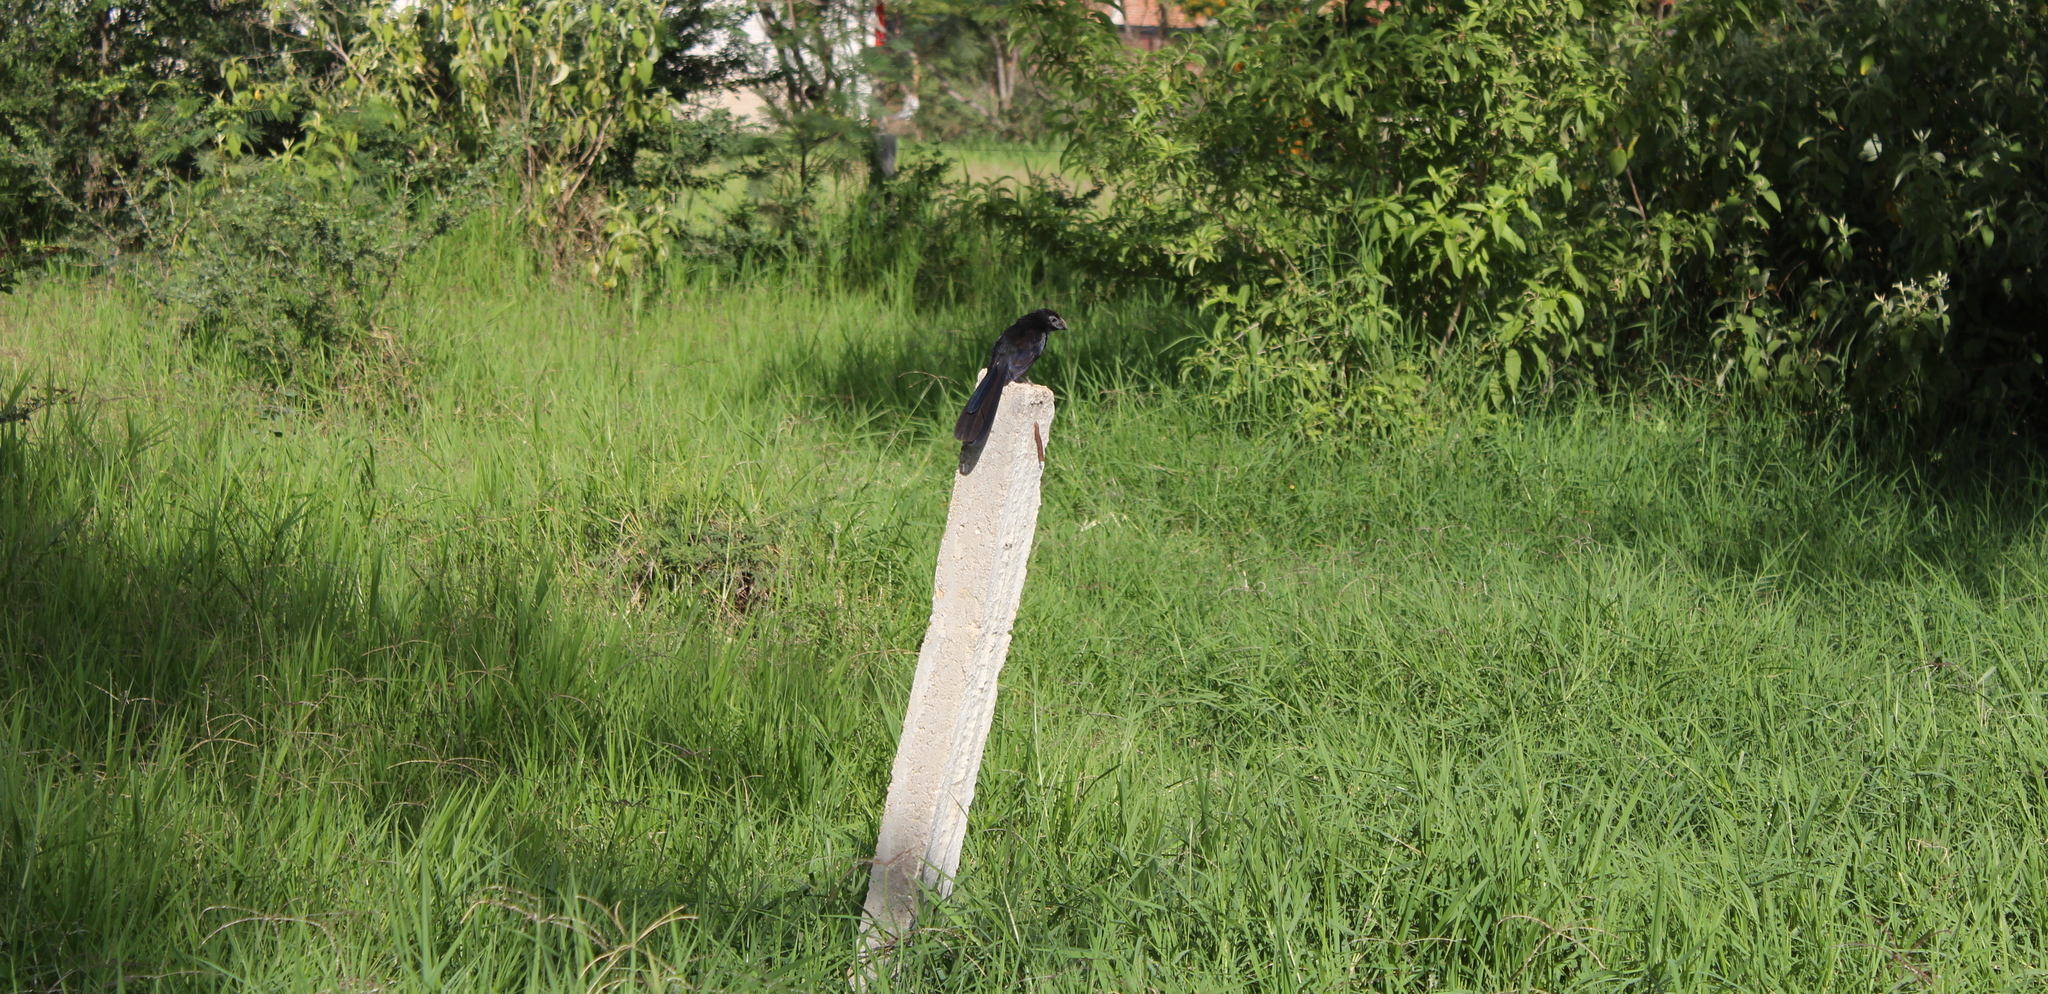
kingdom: Animalia
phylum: Chordata
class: Aves
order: Cuculiformes
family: Cuculidae
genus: Crotophaga
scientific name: Crotophaga sulcirostris
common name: Groove-billed ani
